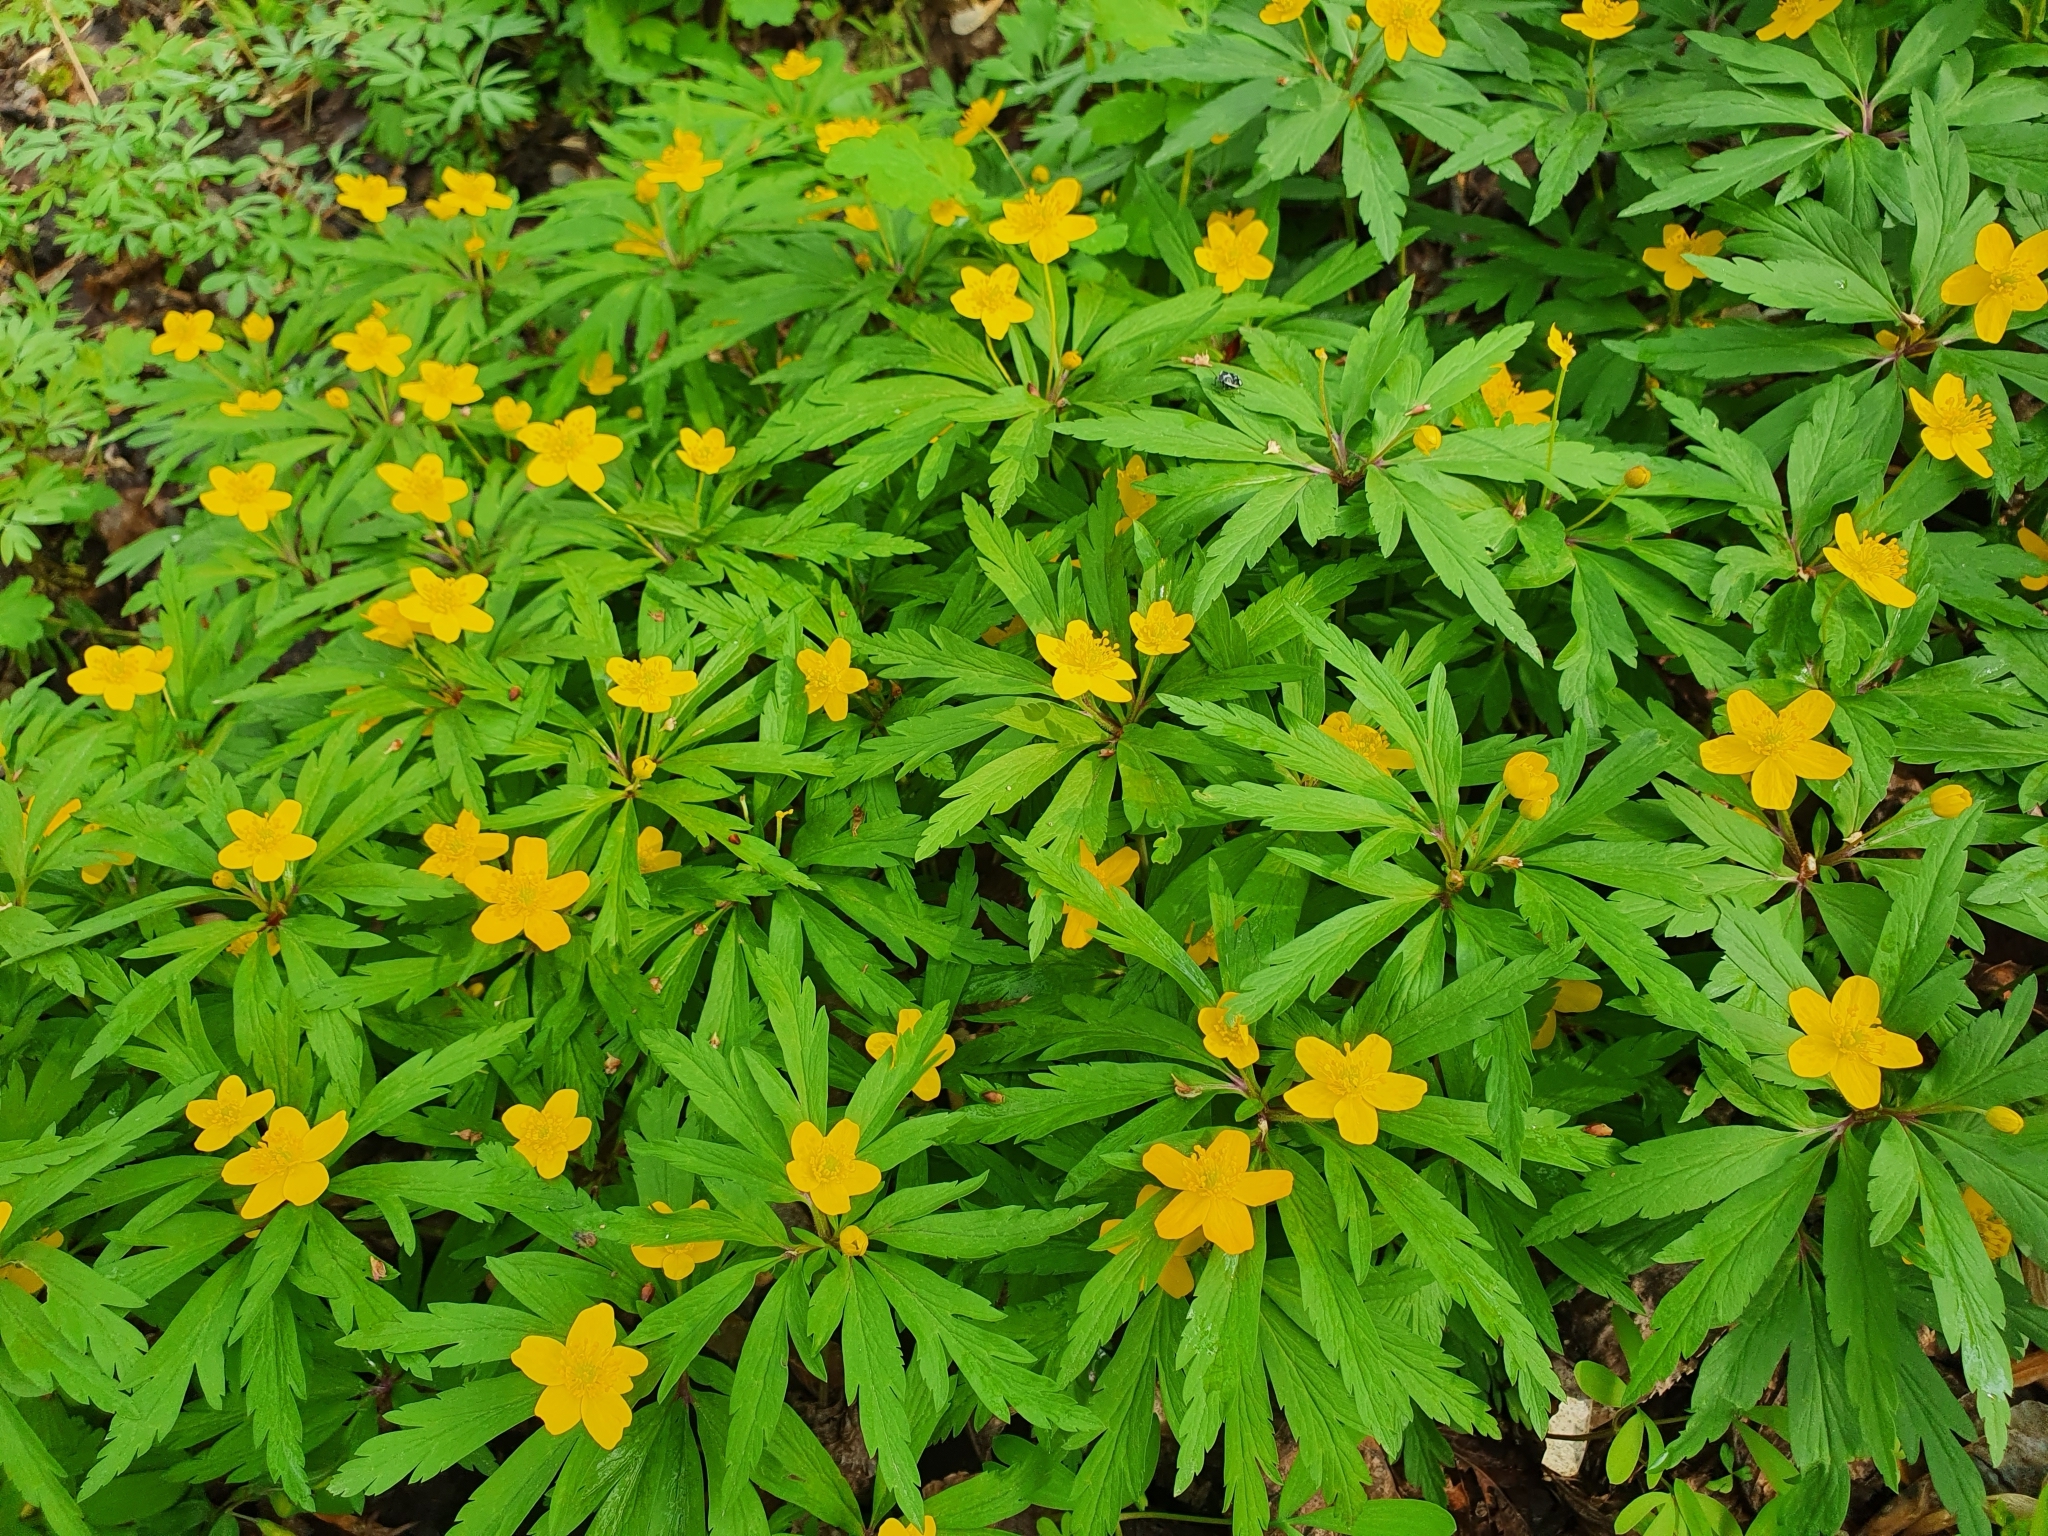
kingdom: Plantae
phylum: Tracheophyta
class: Magnoliopsida
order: Ranunculales
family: Ranunculaceae
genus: Anemone
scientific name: Anemone ranunculoides
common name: Yellow anemone
